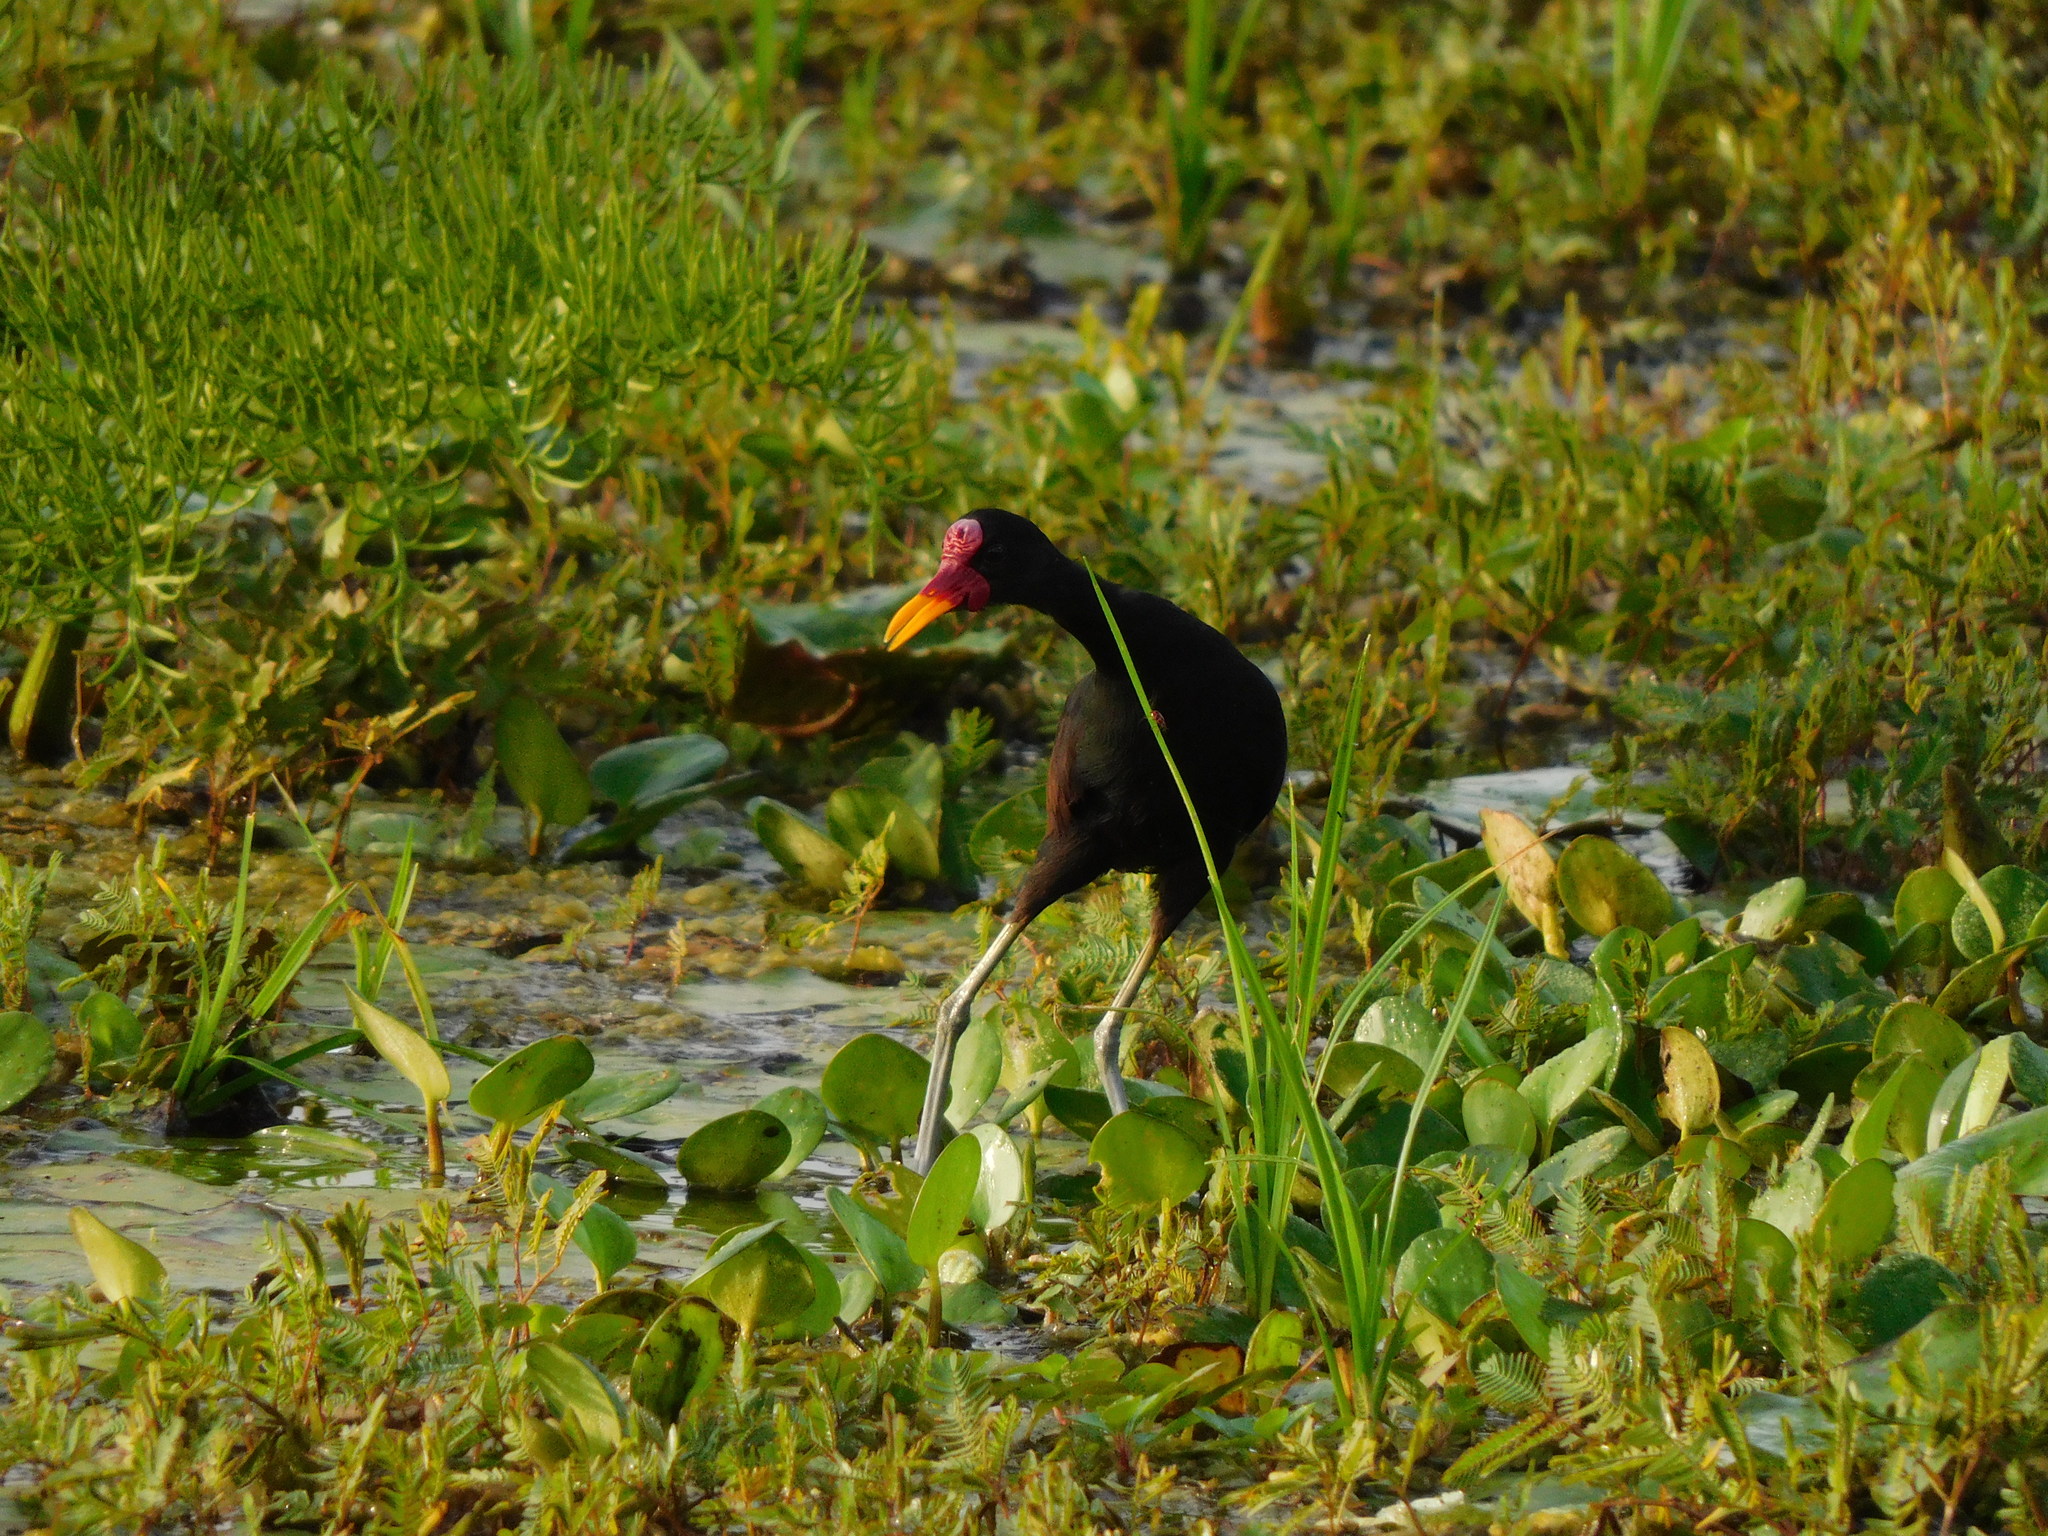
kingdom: Animalia
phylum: Chordata
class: Aves
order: Charadriiformes
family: Jacanidae
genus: Jacana
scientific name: Jacana jacana
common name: Wattled jacana
